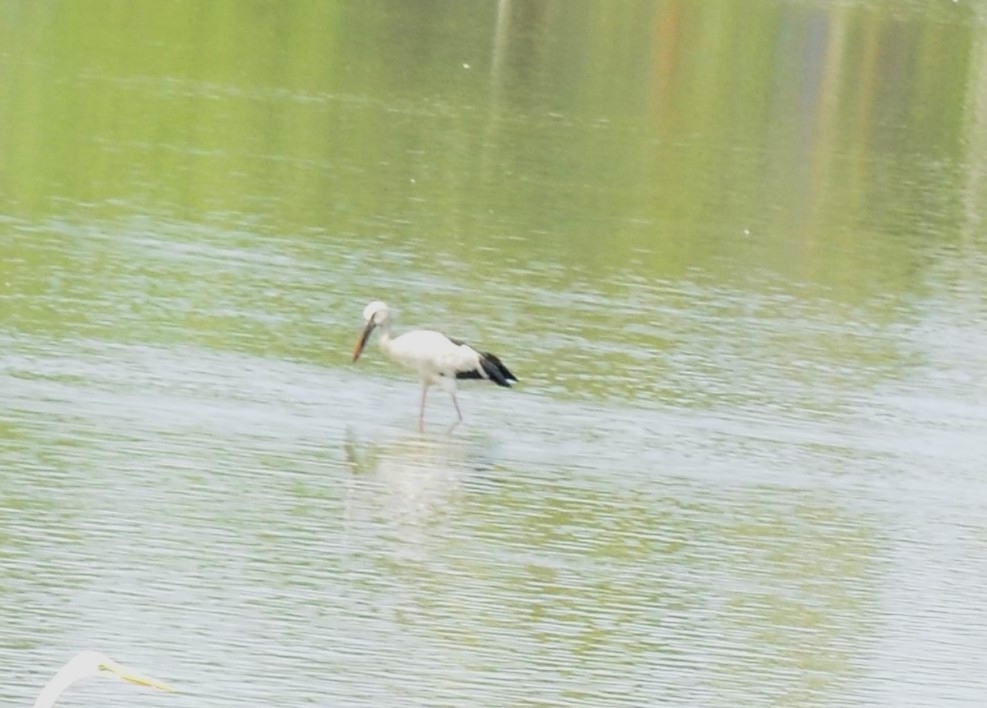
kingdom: Animalia
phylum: Chordata
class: Aves
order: Ciconiiformes
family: Ciconiidae
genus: Anastomus
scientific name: Anastomus oscitans
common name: Asian openbill
